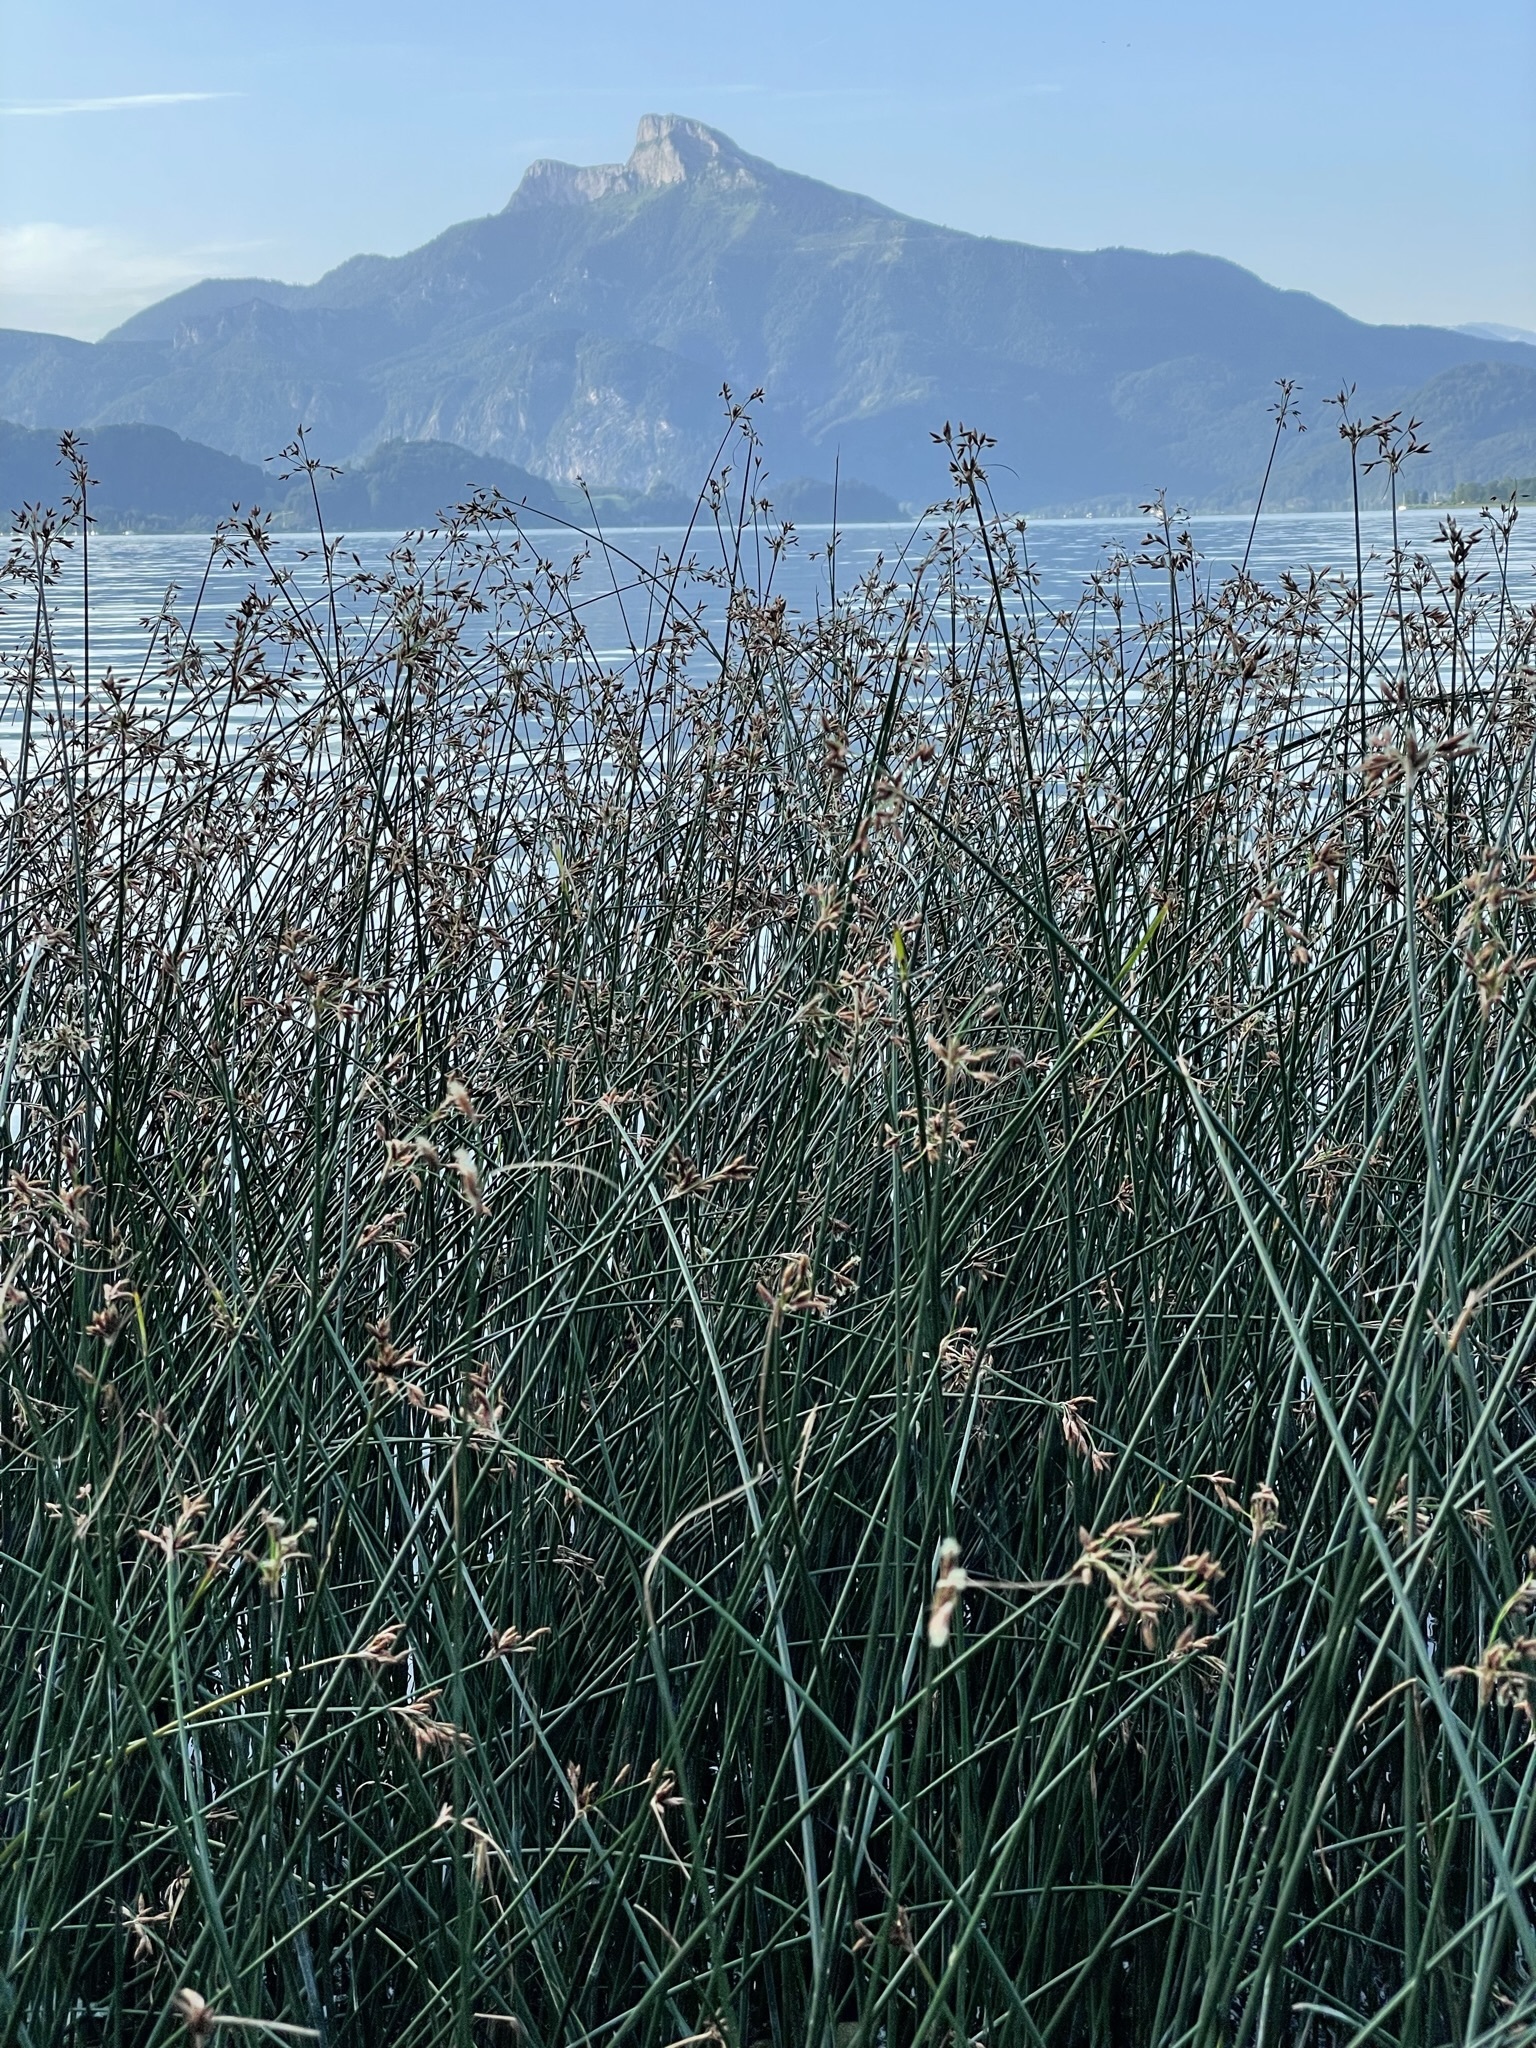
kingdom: Plantae
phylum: Tracheophyta
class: Liliopsida
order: Poales
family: Cyperaceae
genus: Schoenoplectus
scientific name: Schoenoplectus lacustris
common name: Common club-rush
